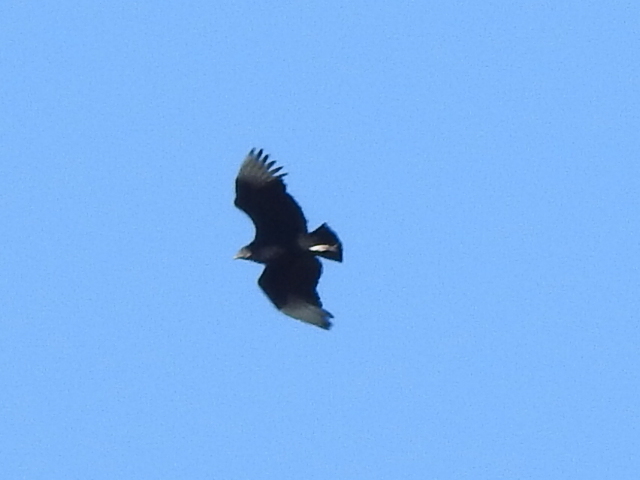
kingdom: Animalia
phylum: Chordata
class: Aves
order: Accipitriformes
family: Cathartidae
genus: Coragyps
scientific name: Coragyps atratus
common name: Black vulture
